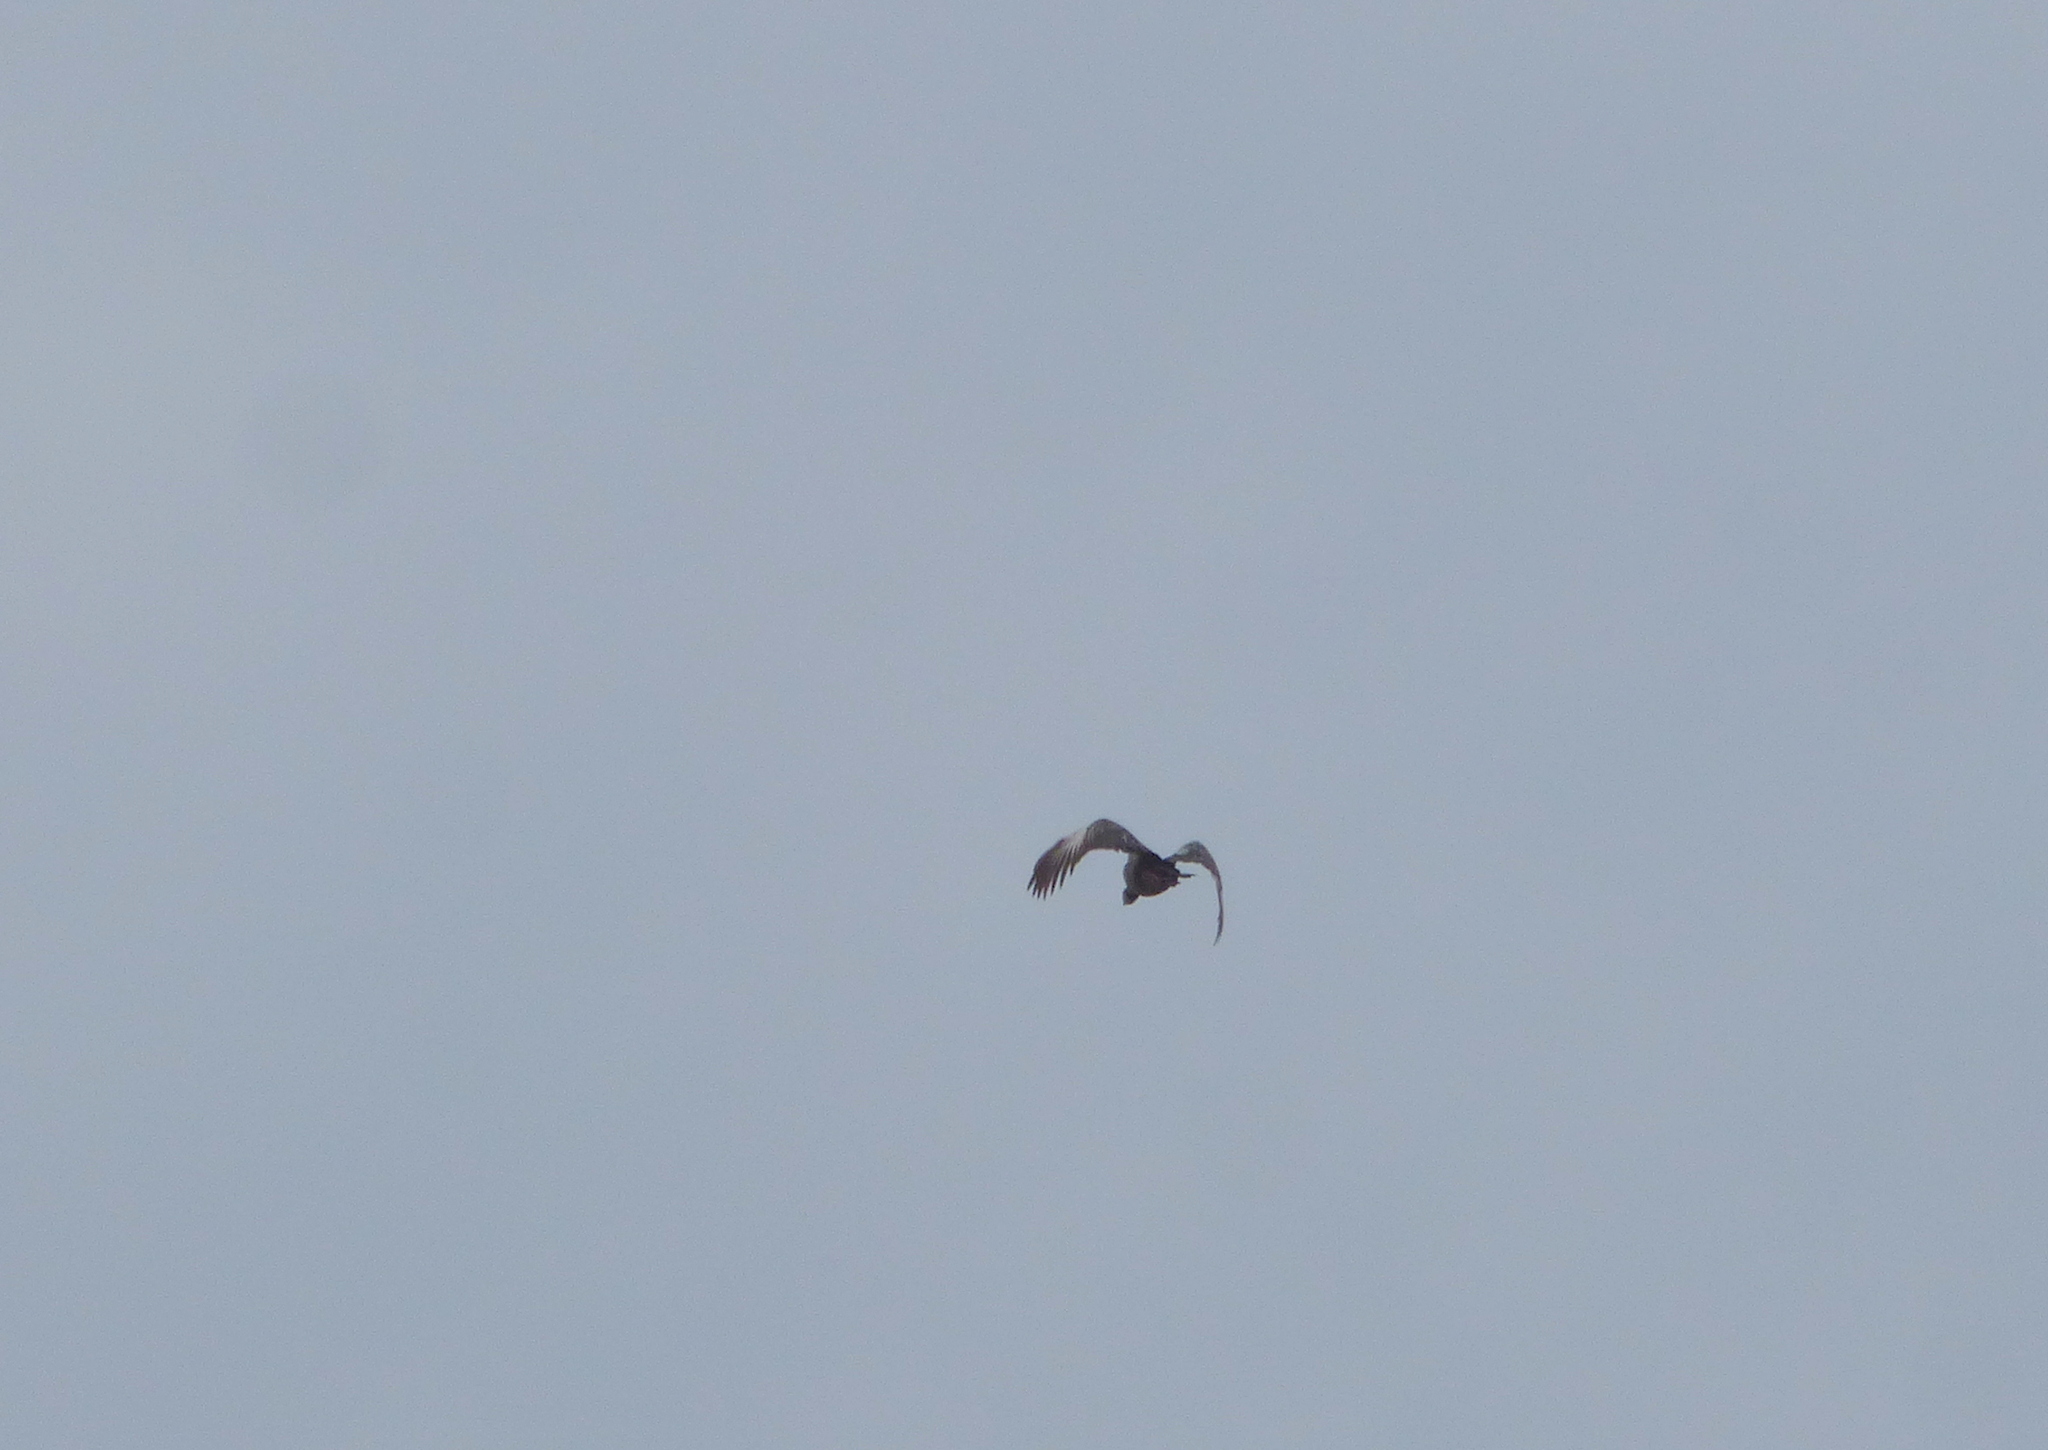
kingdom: Animalia
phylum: Chordata
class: Aves
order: Anseriformes
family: Anhimidae
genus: Chauna
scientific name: Chauna torquata
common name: Southern screamer
